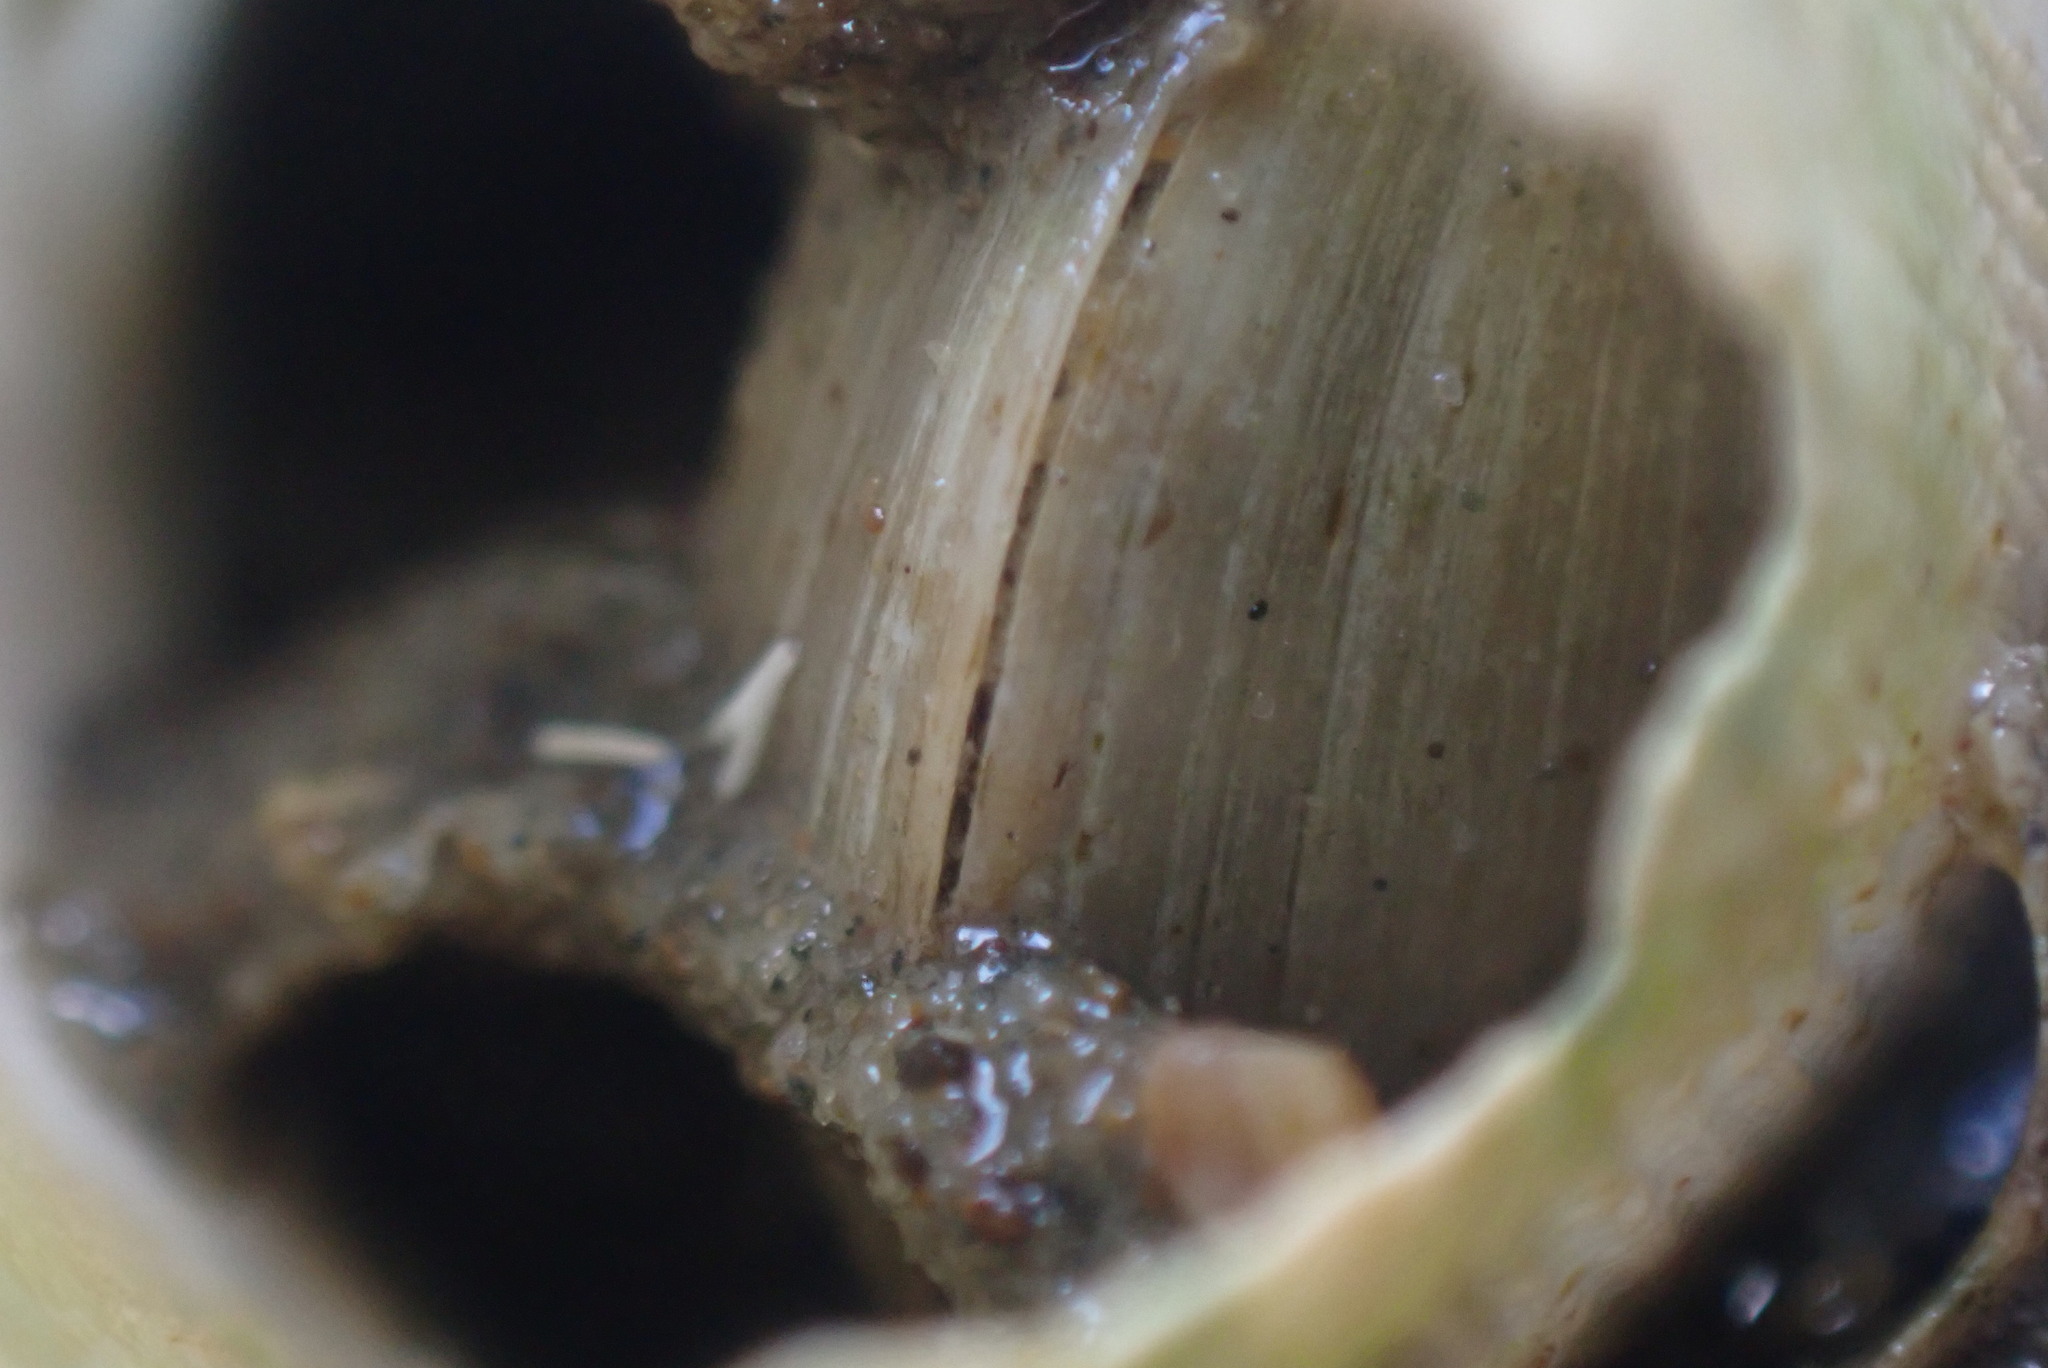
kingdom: Animalia
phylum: Mollusca
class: Bivalvia
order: Venerida
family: Ungulinidae
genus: Zemysina
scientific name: Zemysina striatula
